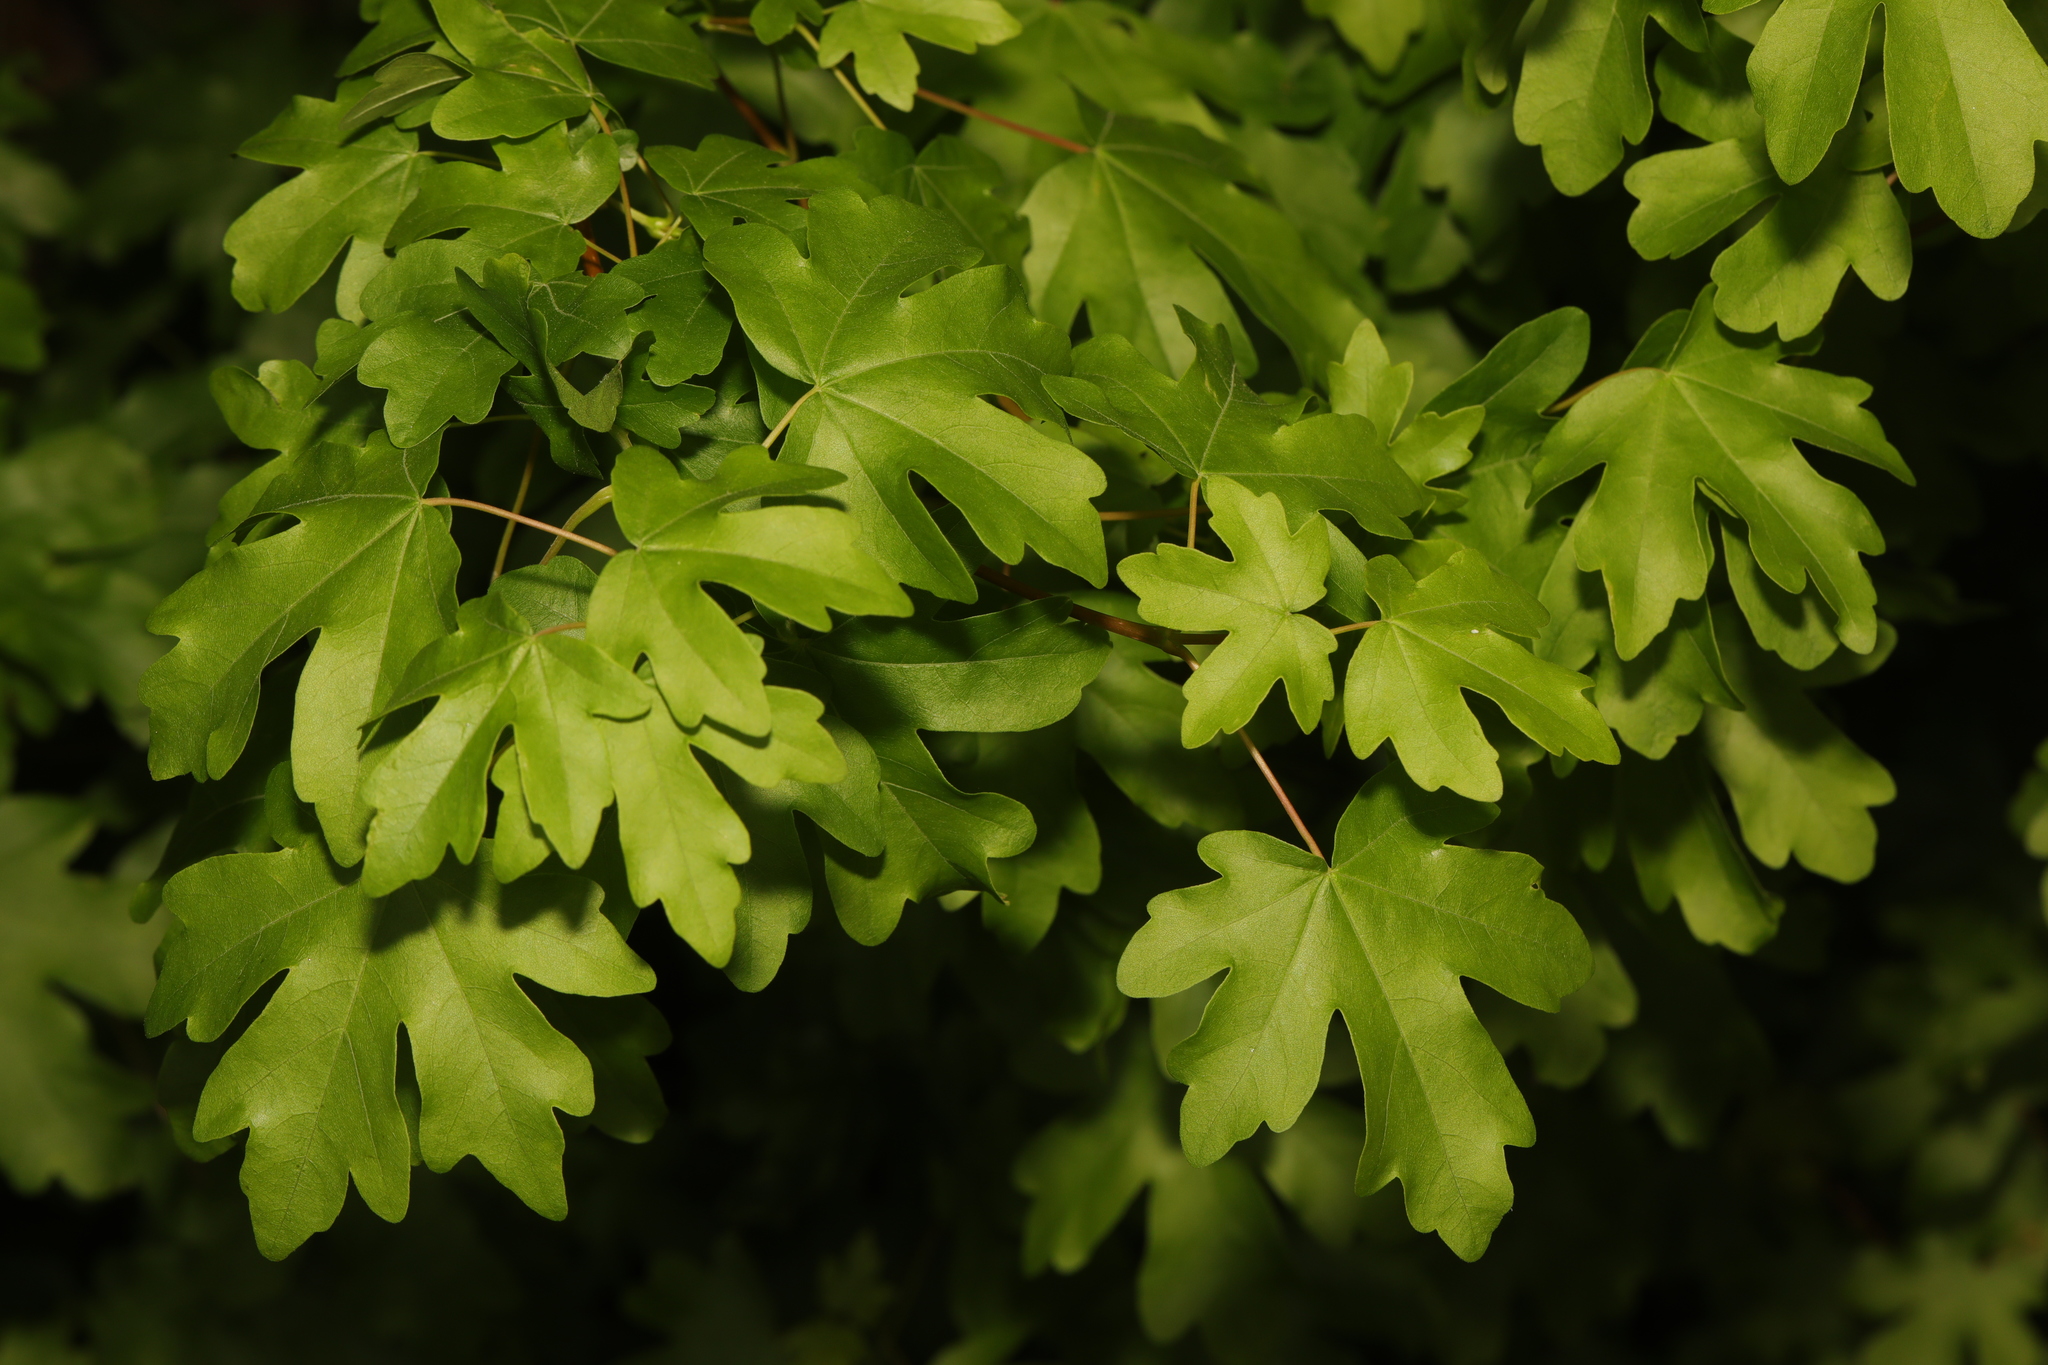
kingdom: Plantae
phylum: Tracheophyta
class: Magnoliopsida
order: Sapindales
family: Sapindaceae
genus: Acer
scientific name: Acer campestre
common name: Field maple
